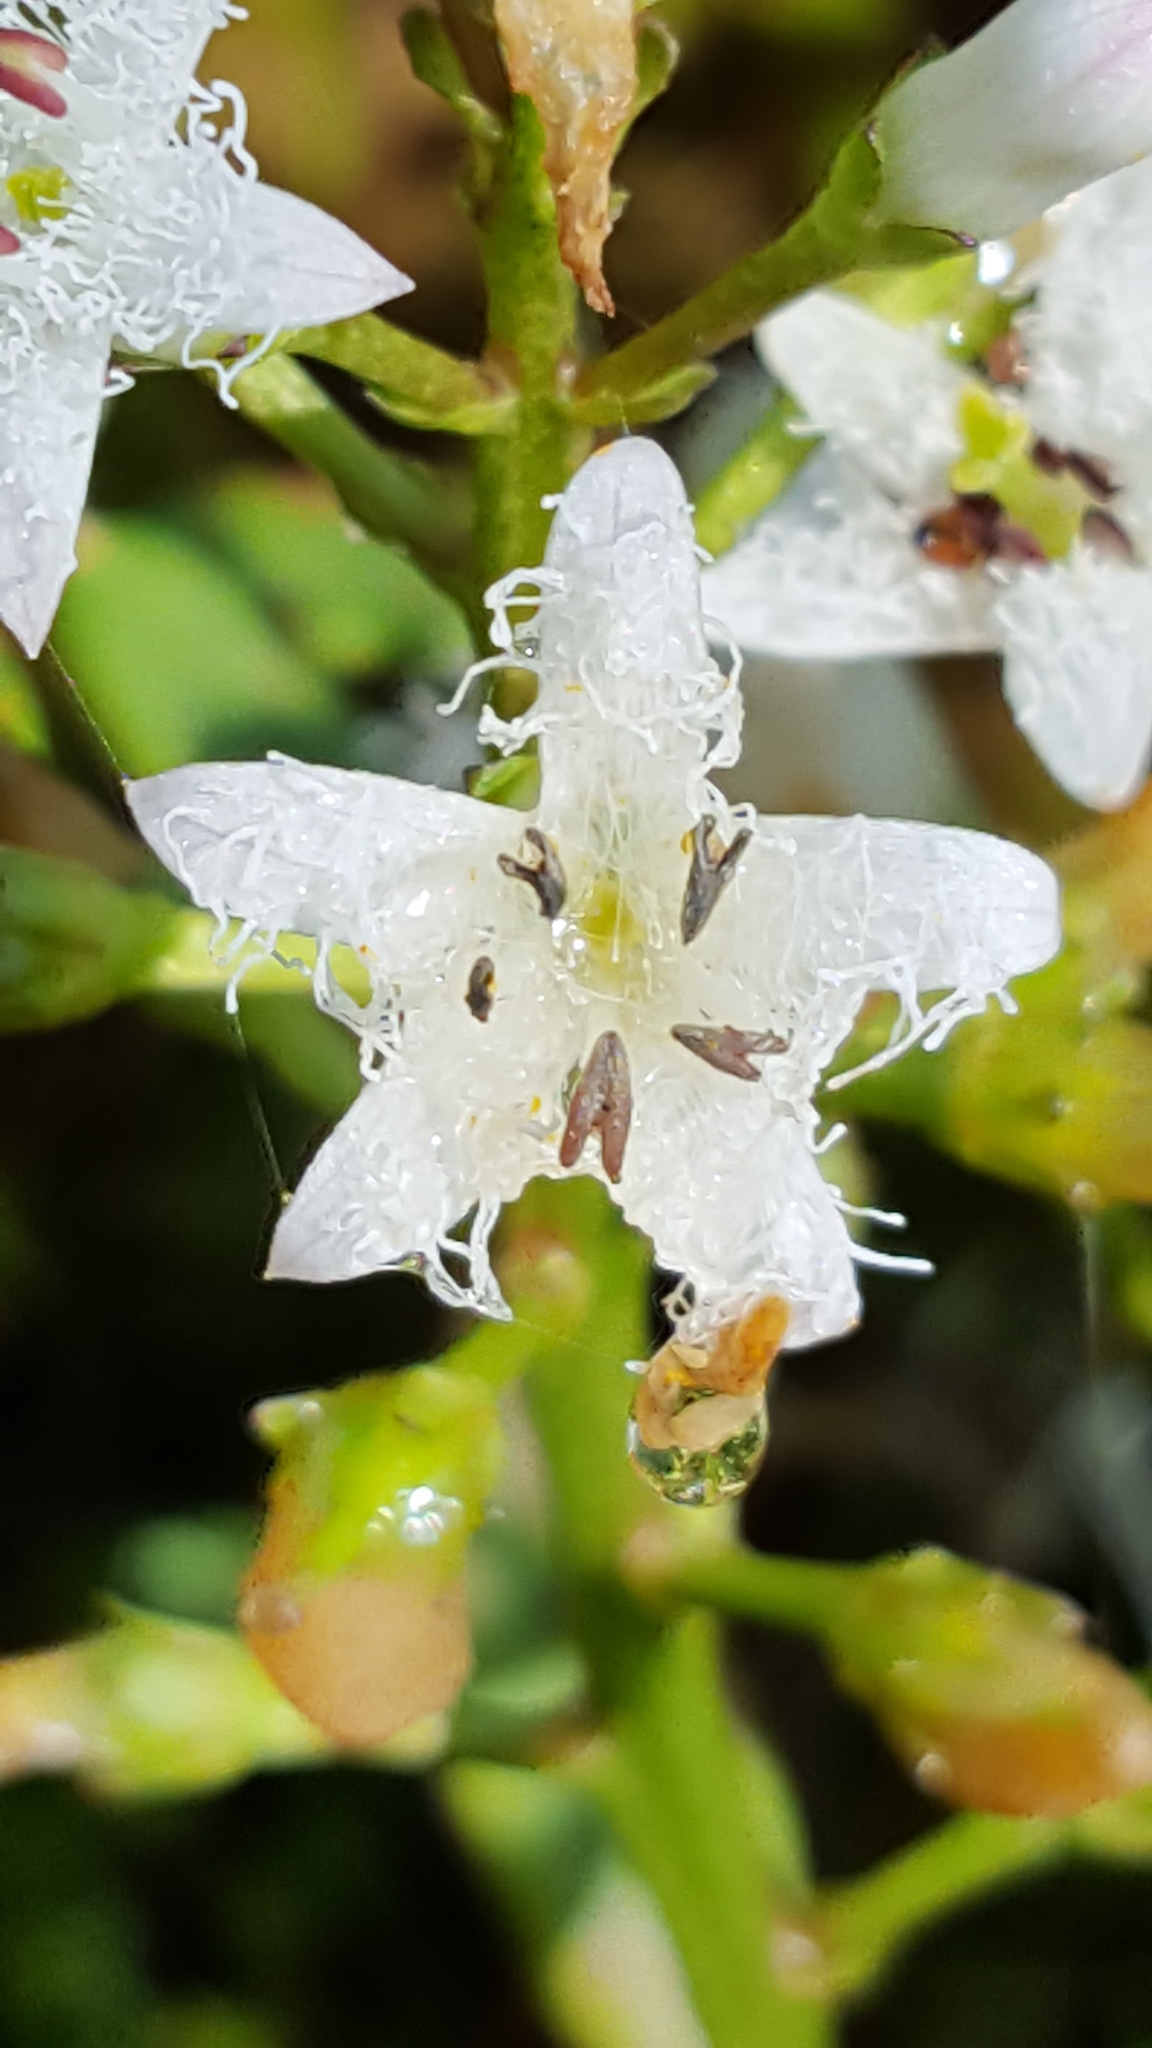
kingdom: Plantae
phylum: Tracheophyta
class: Magnoliopsida
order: Asterales
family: Menyanthaceae
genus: Menyanthes
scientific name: Menyanthes trifoliata
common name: Bogbean
